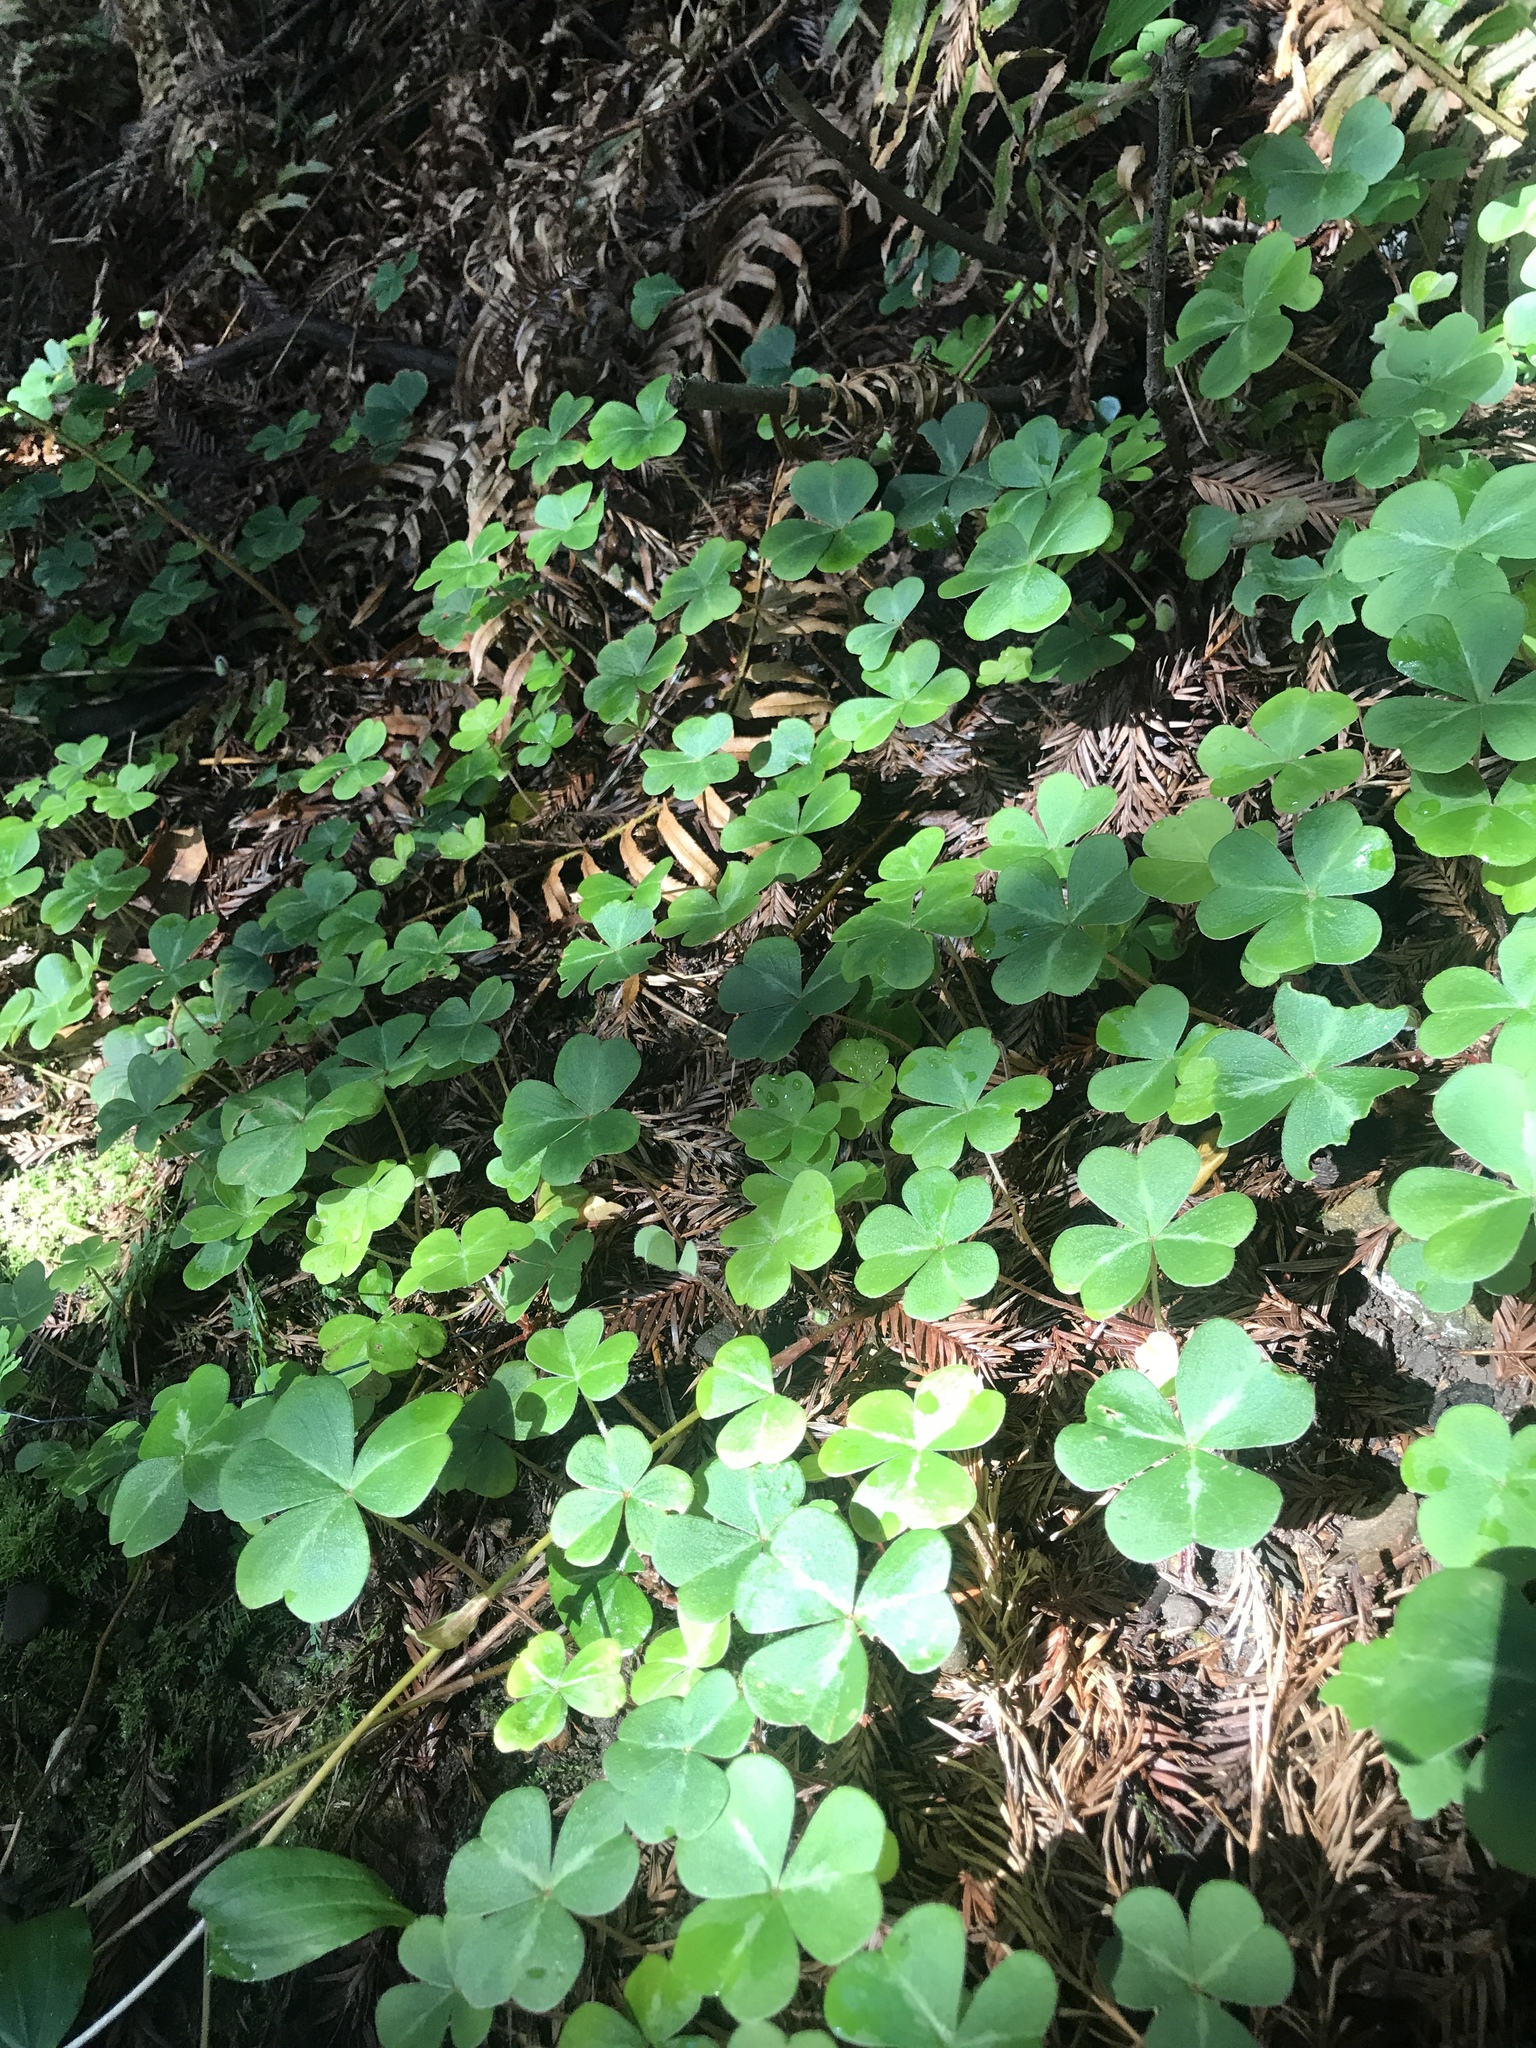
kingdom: Plantae
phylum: Tracheophyta
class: Magnoliopsida
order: Oxalidales
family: Oxalidaceae
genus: Oxalis
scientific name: Oxalis oregana
